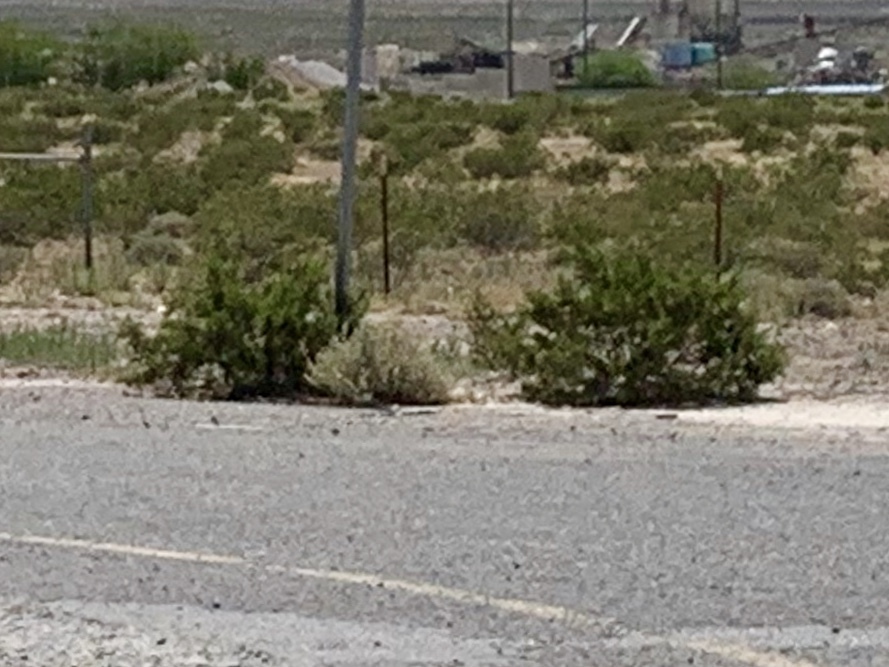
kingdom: Plantae
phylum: Tracheophyta
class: Magnoliopsida
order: Zygophyllales
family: Zygophyllaceae
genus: Larrea
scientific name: Larrea tridentata
